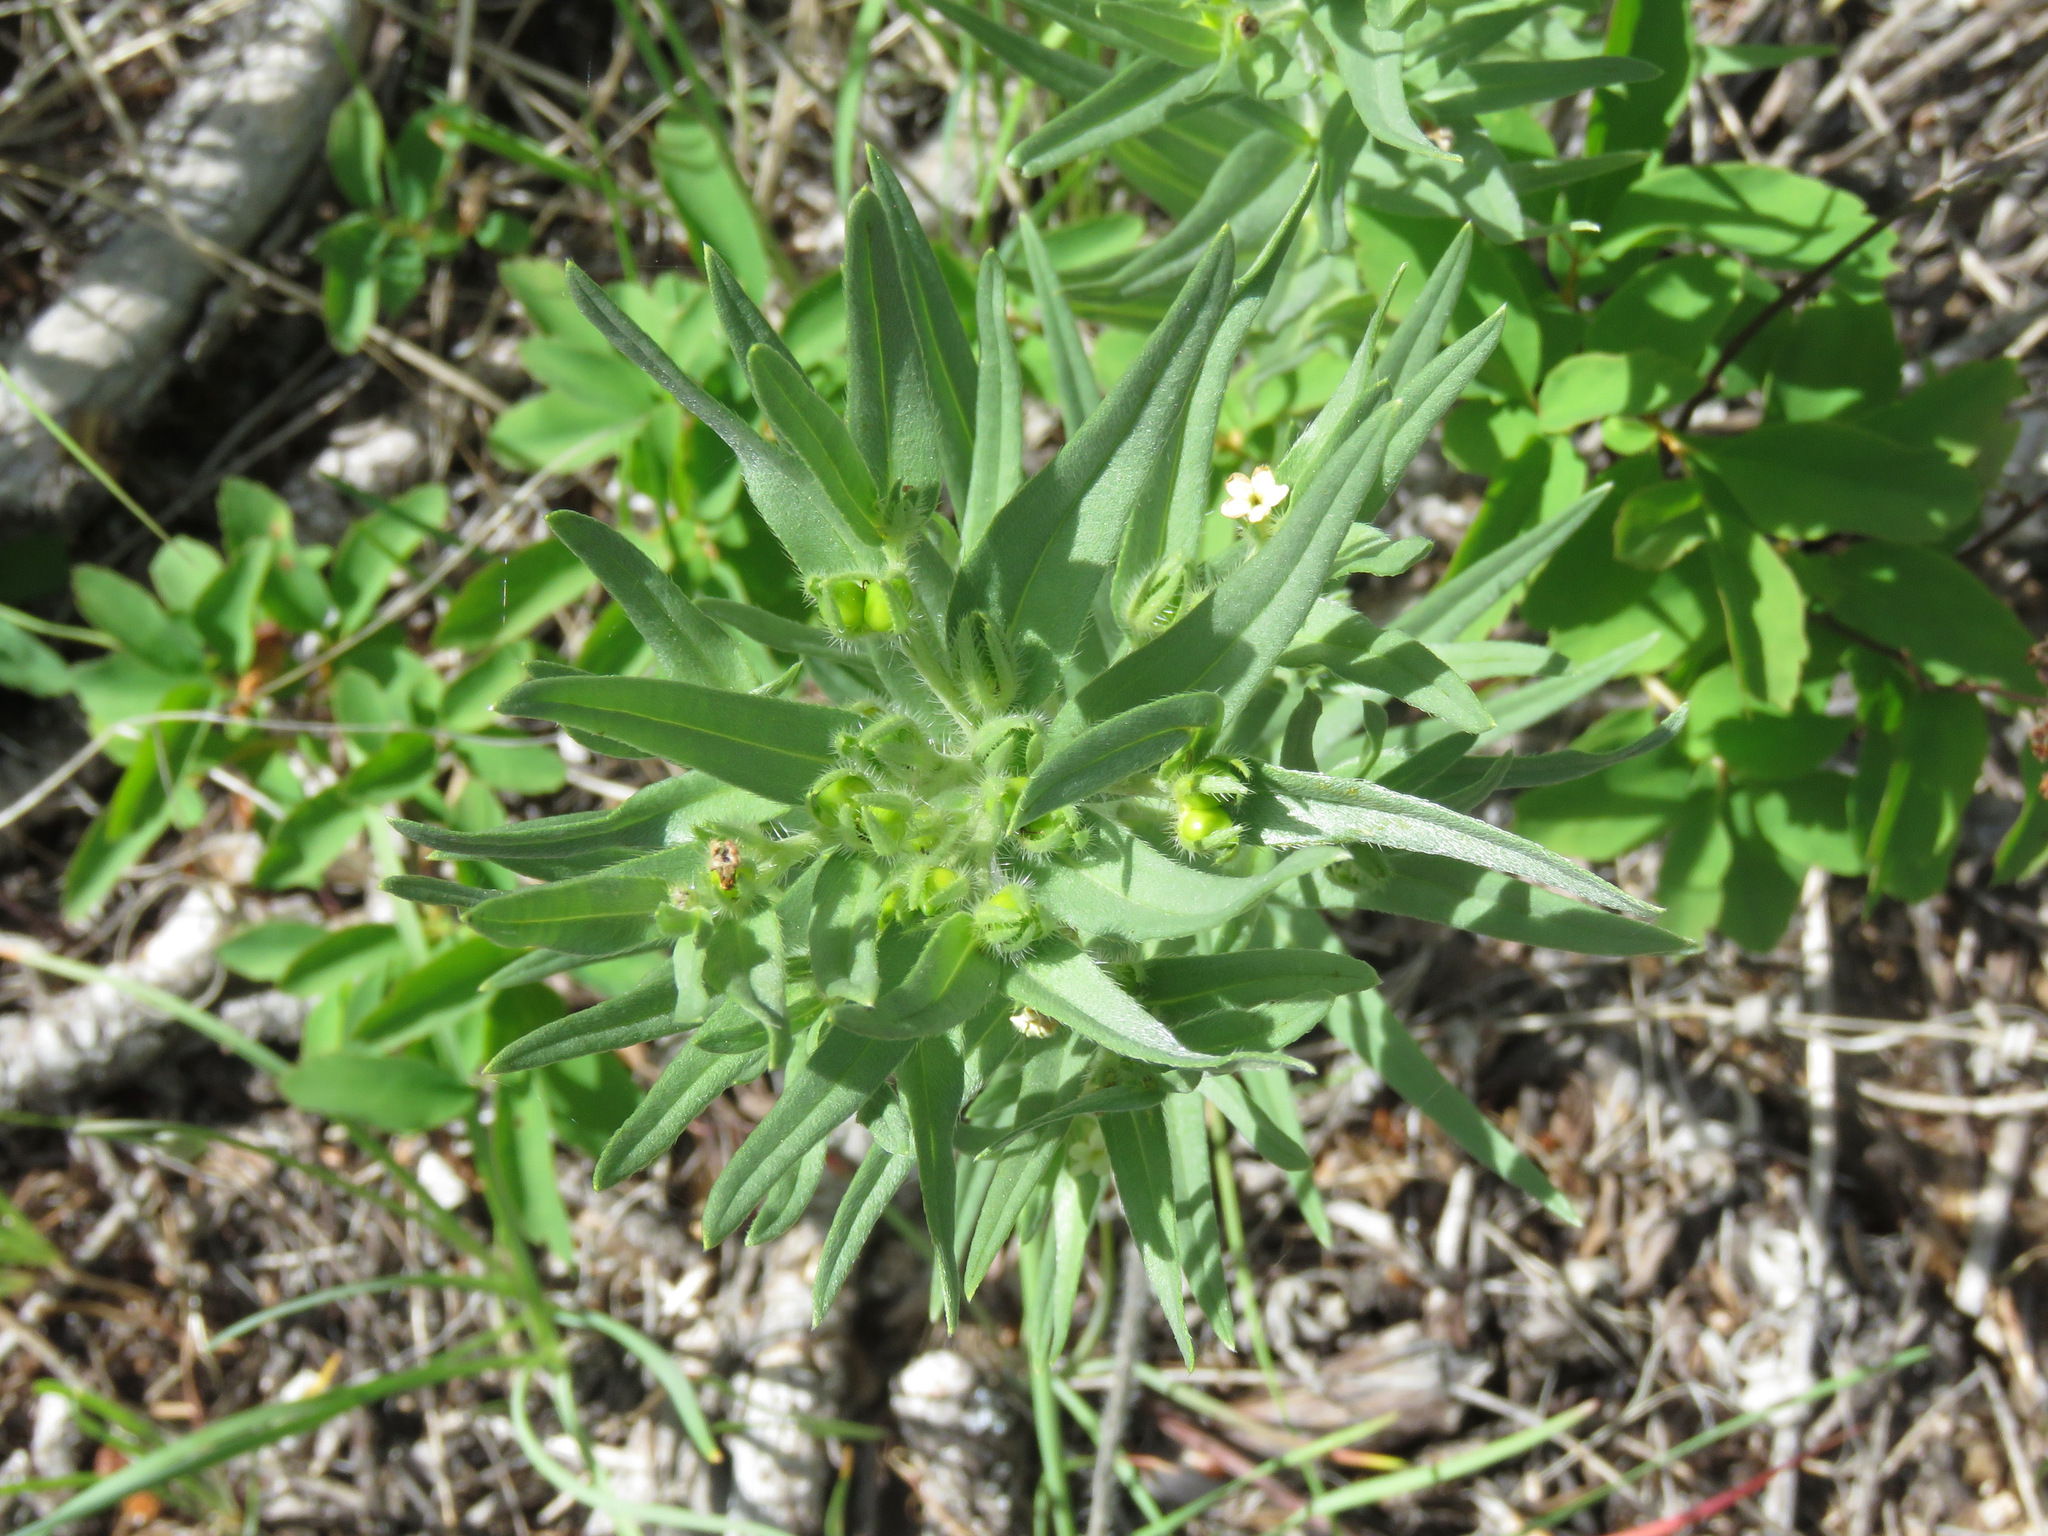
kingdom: Plantae
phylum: Tracheophyta
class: Magnoliopsida
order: Boraginales
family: Boraginaceae
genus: Lithospermum
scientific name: Lithospermum ruderale
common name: Western gromwell
